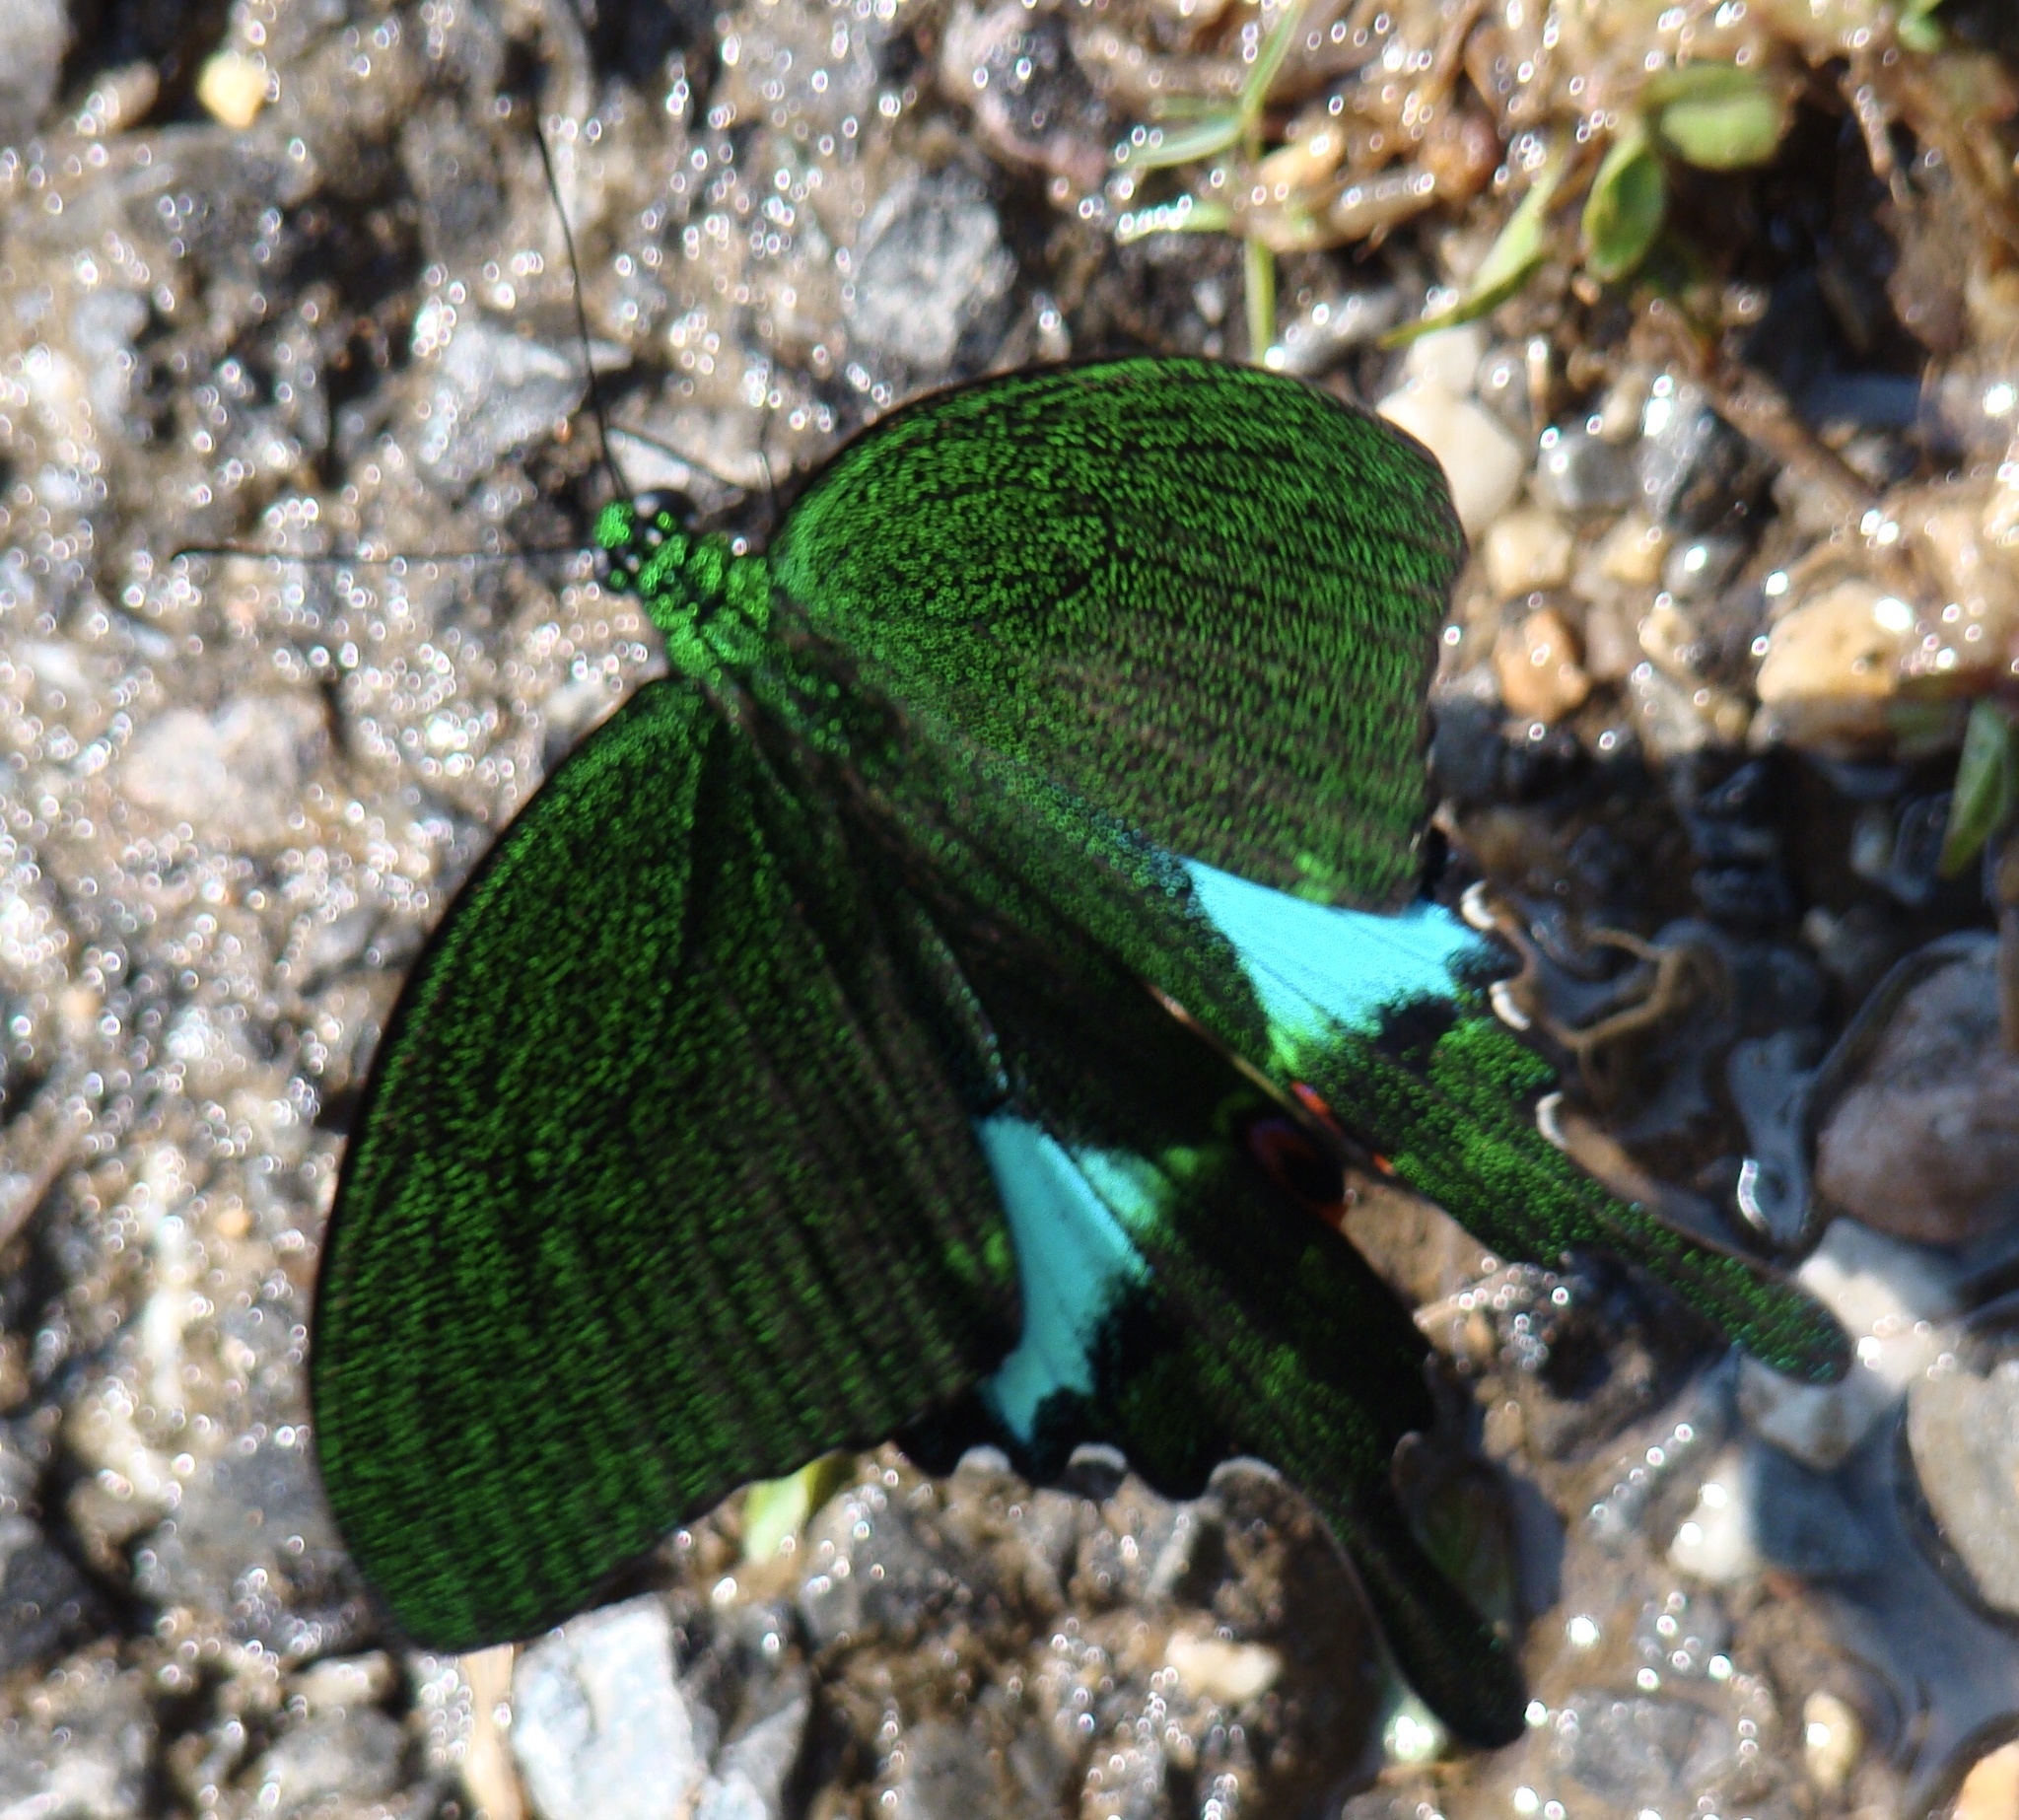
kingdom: Animalia
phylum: Arthropoda
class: Insecta
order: Lepidoptera
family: Papilionidae
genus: Papilio
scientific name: Papilio paris
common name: Paris peacock
